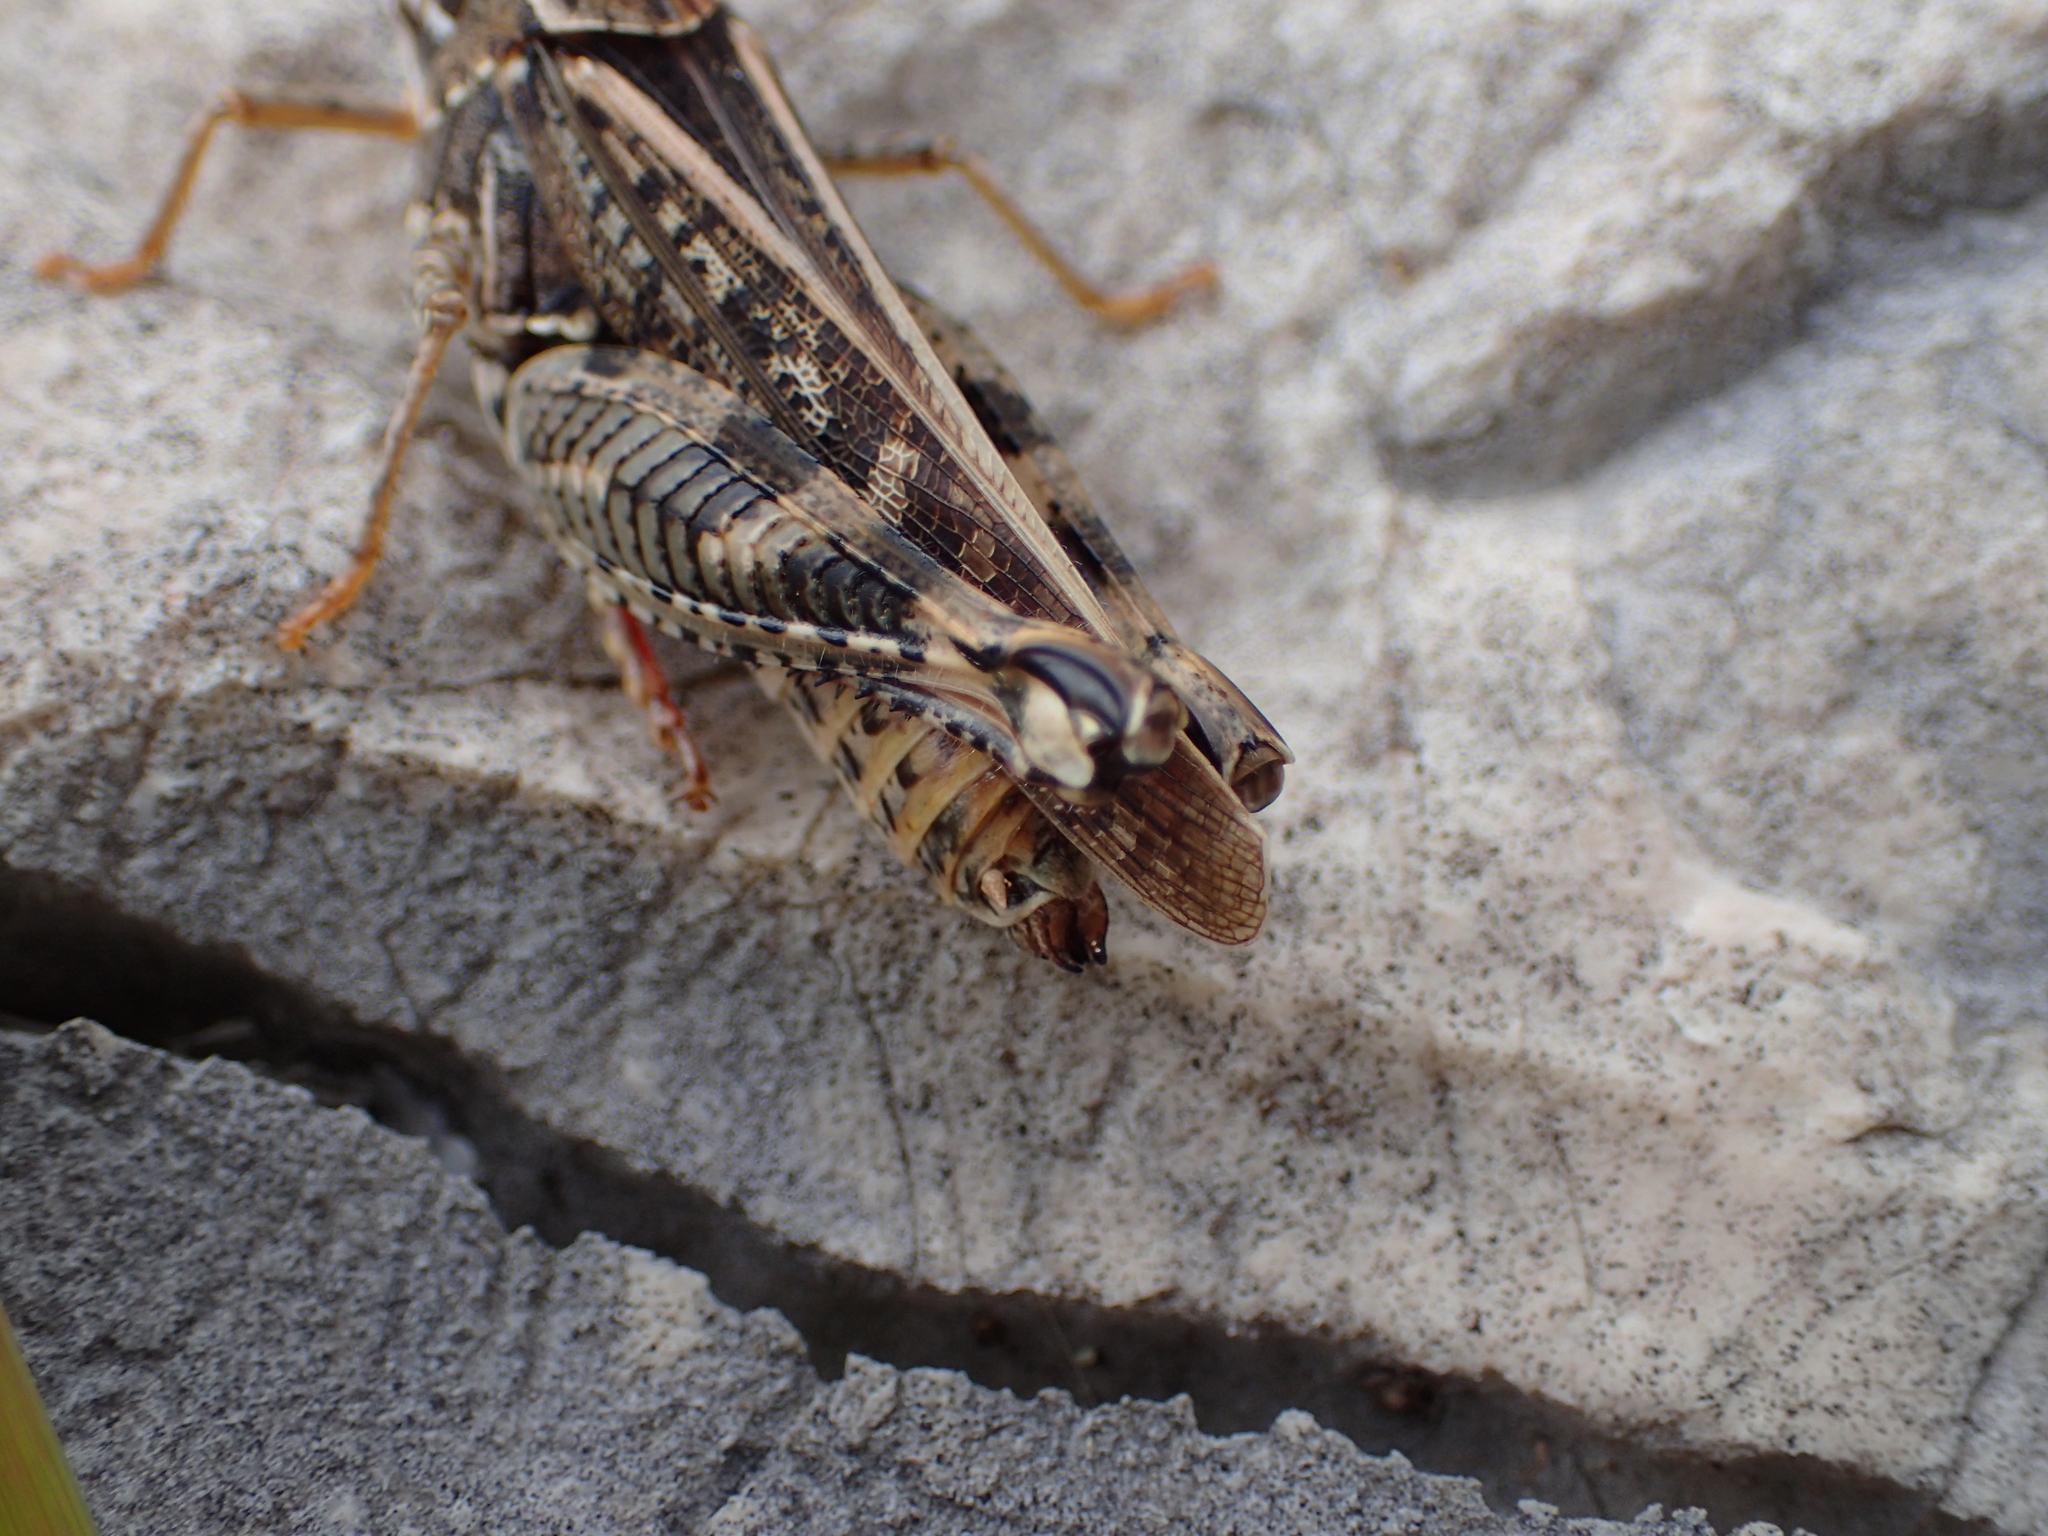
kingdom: Animalia
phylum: Arthropoda
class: Insecta
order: Orthoptera
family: Acrididae
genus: Calliptamus
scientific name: Calliptamus italicus
